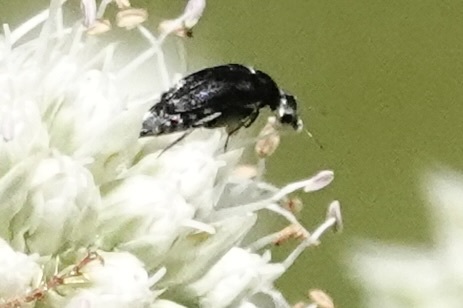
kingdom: Animalia
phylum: Arthropoda
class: Insecta
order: Coleoptera
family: Mordellidae
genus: Mordella
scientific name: Mordella marginata
